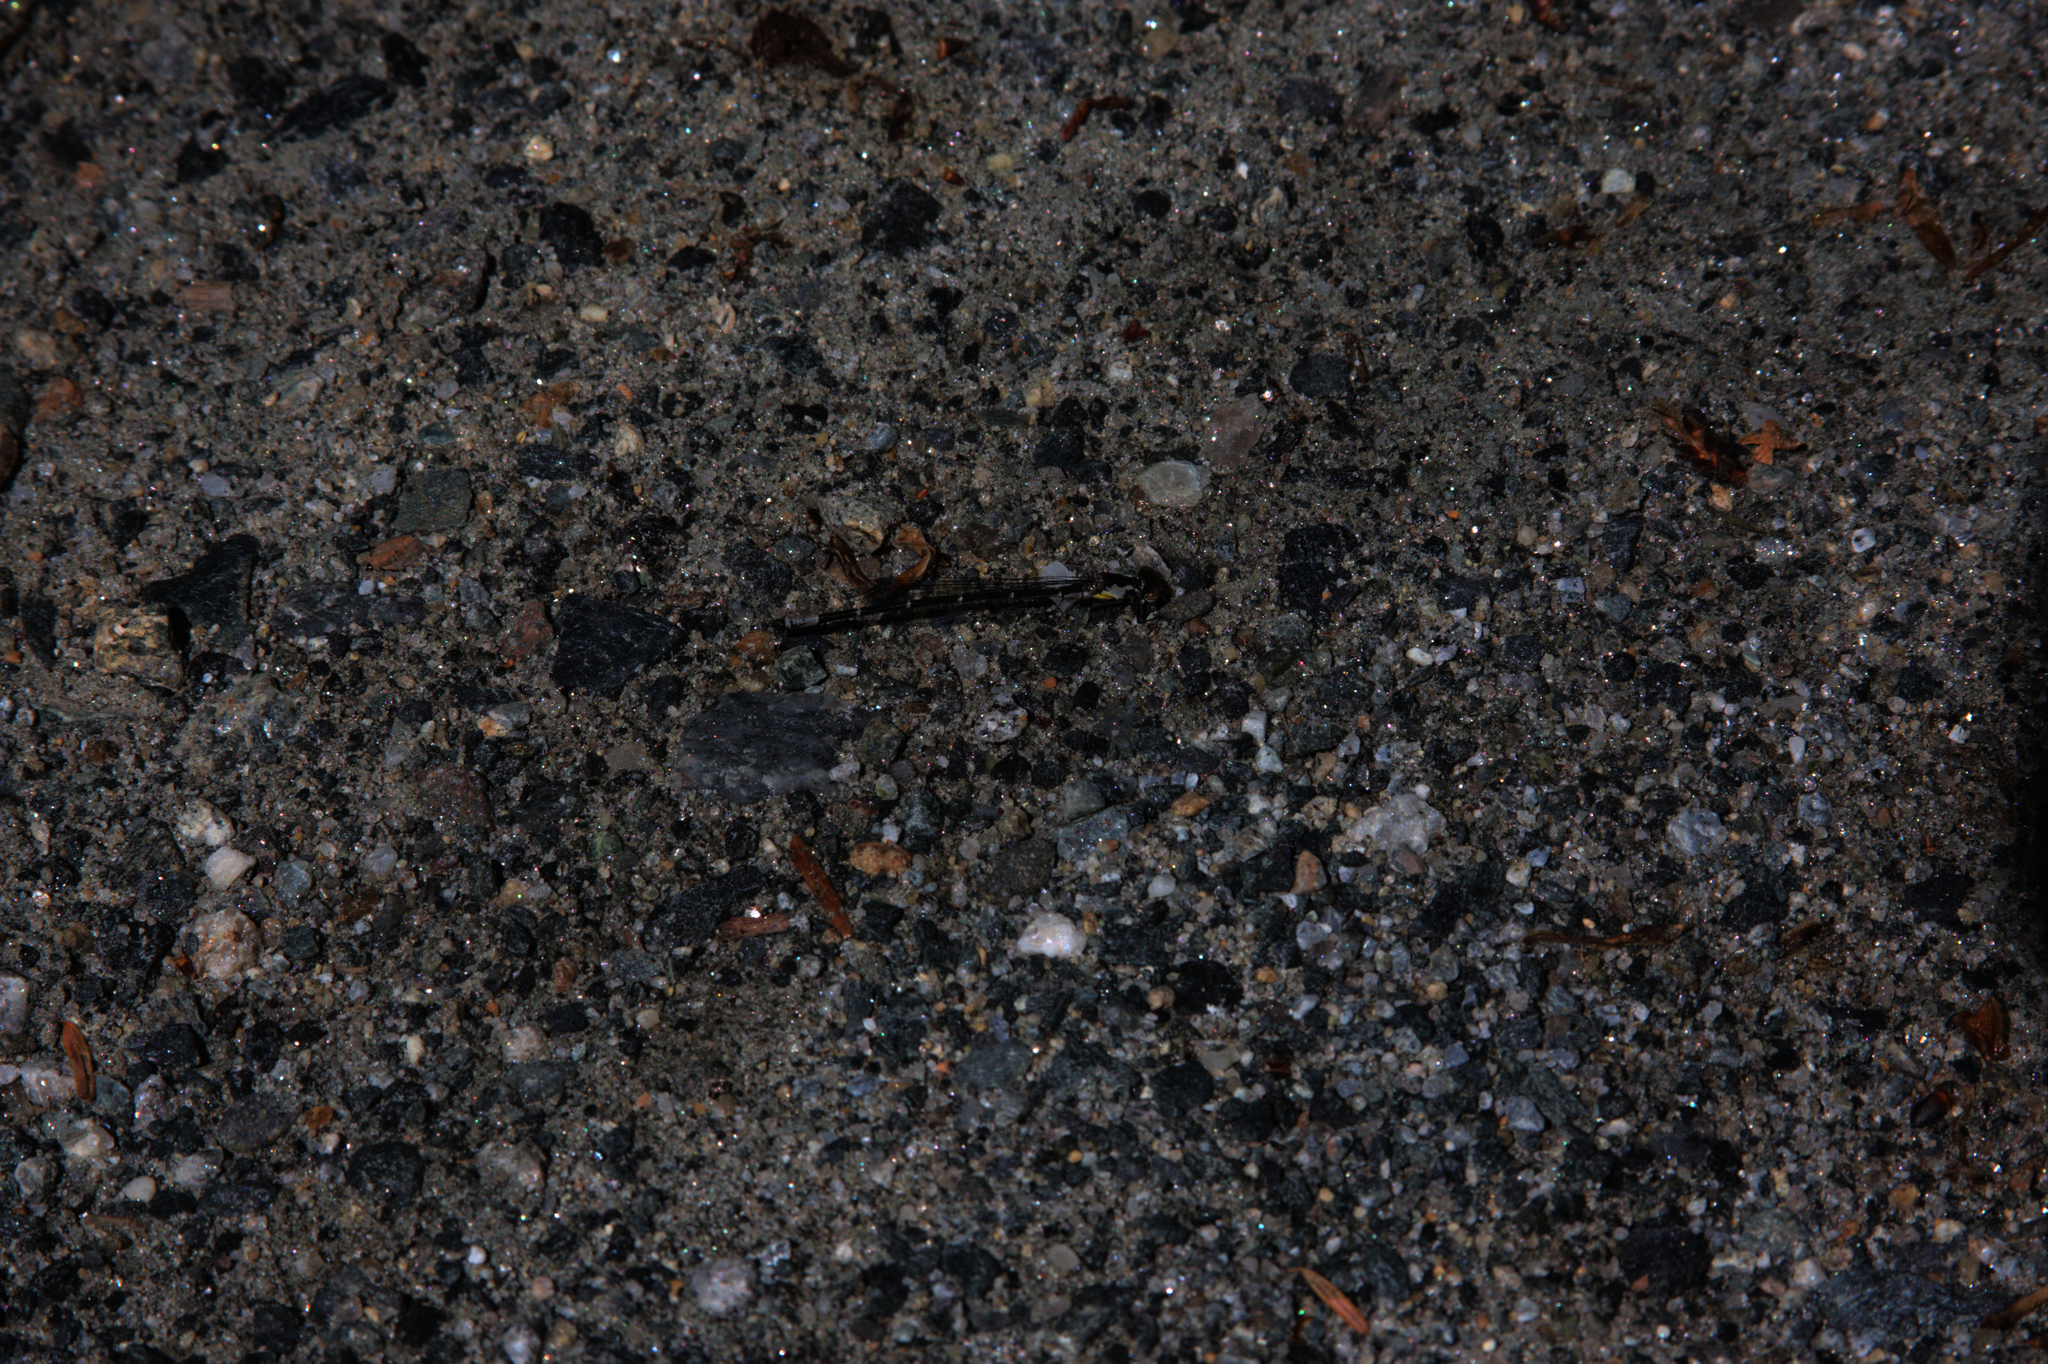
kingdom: Animalia
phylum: Arthropoda
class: Insecta
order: Odonata
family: Coenagrionidae
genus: Chromagrion
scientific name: Chromagrion conditum
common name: Aurora damsel
